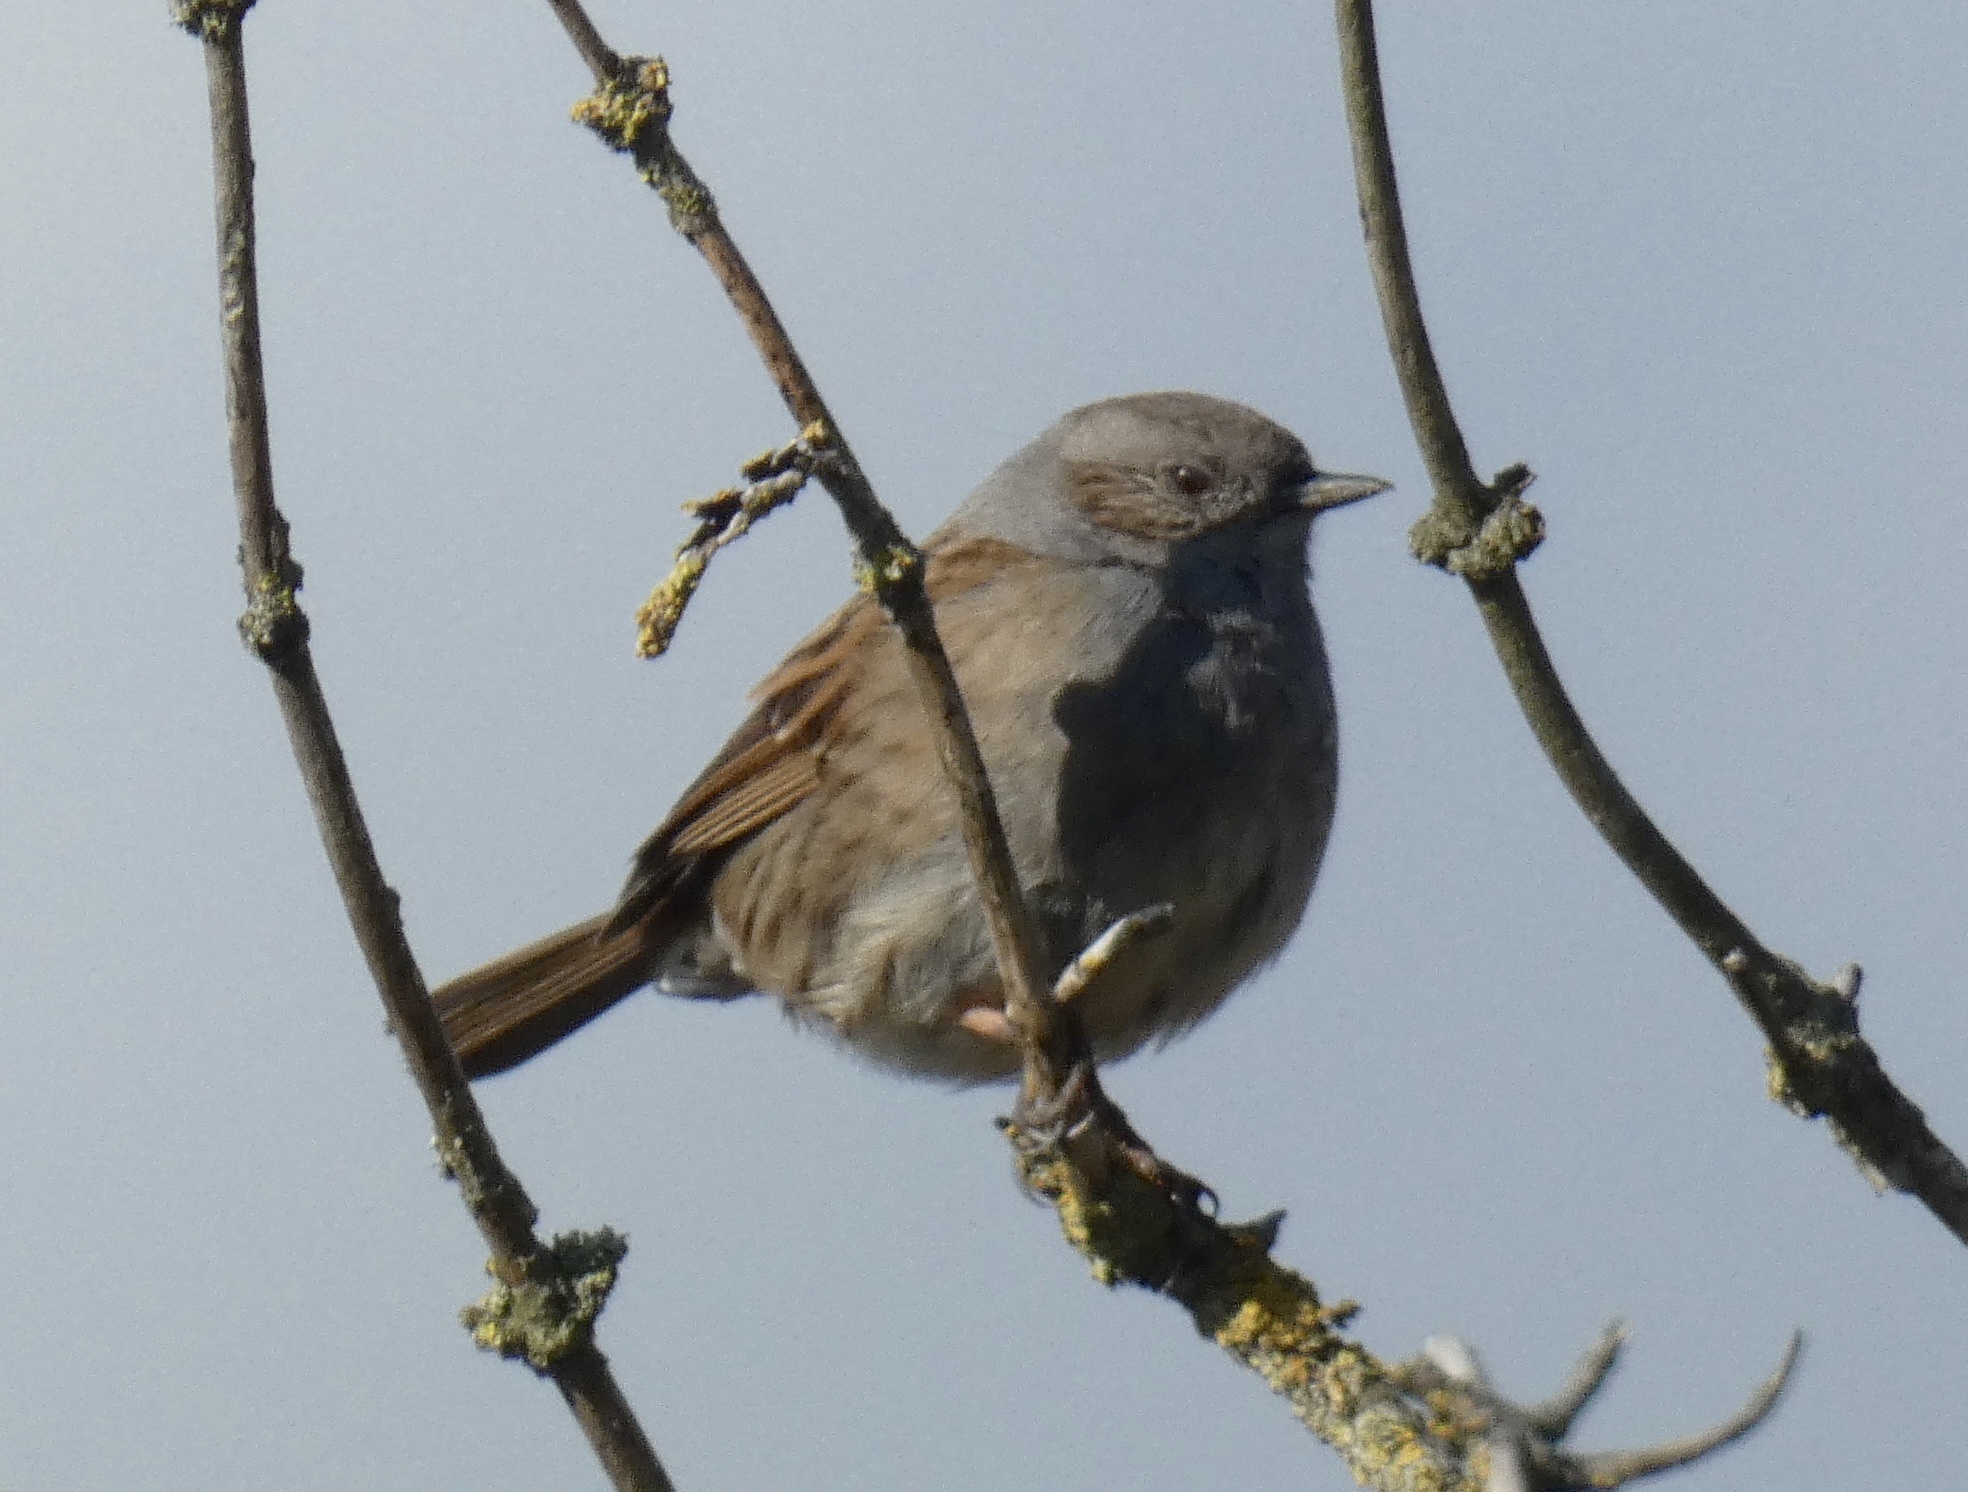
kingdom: Animalia
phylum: Chordata
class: Aves
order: Passeriformes
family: Prunellidae
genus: Prunella
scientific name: Prunella modularis
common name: Dunnock
